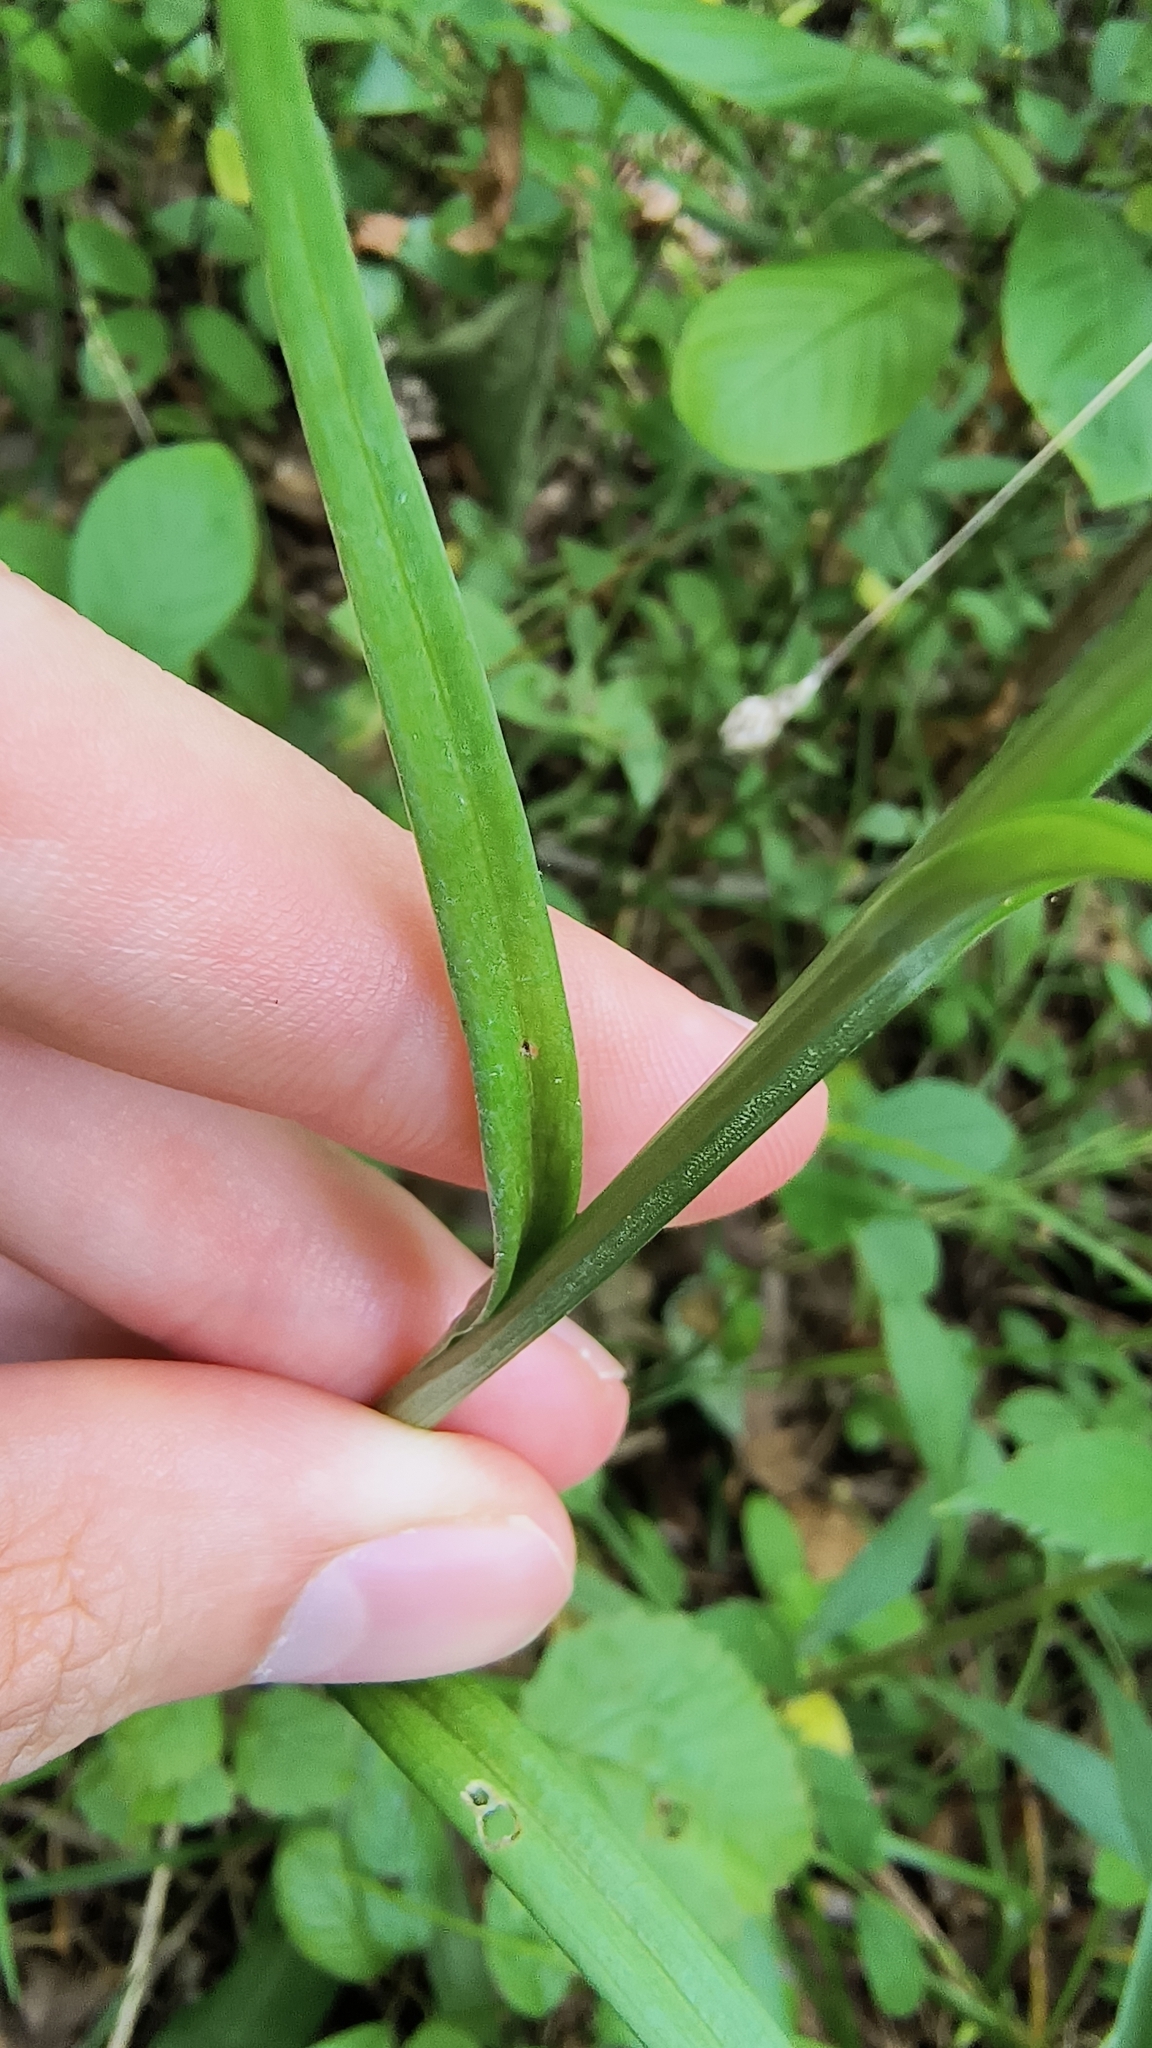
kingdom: Plantae
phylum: Tracheophyta
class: Liliopsida
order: Asparagales
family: Orchidaceae
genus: Platanthera
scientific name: Platanthera blephariglottis
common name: White fringed orchid
